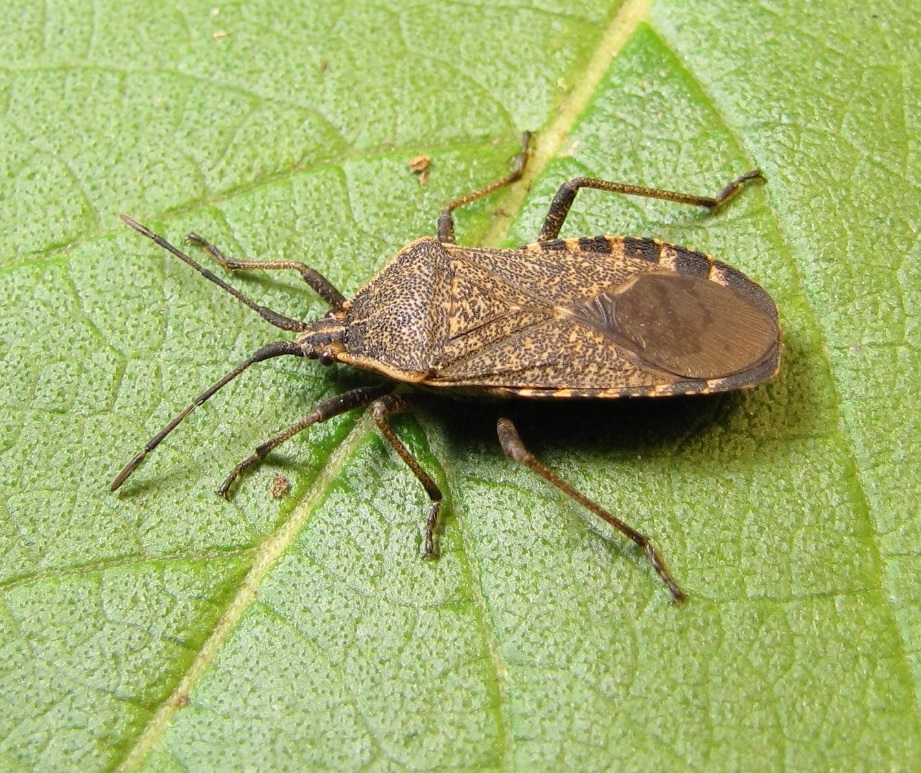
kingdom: Animalia
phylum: Arthropoda
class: Insecta
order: Hemiptera
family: Coreidae
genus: Anasa
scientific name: Anasa tristis
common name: Squash bug
